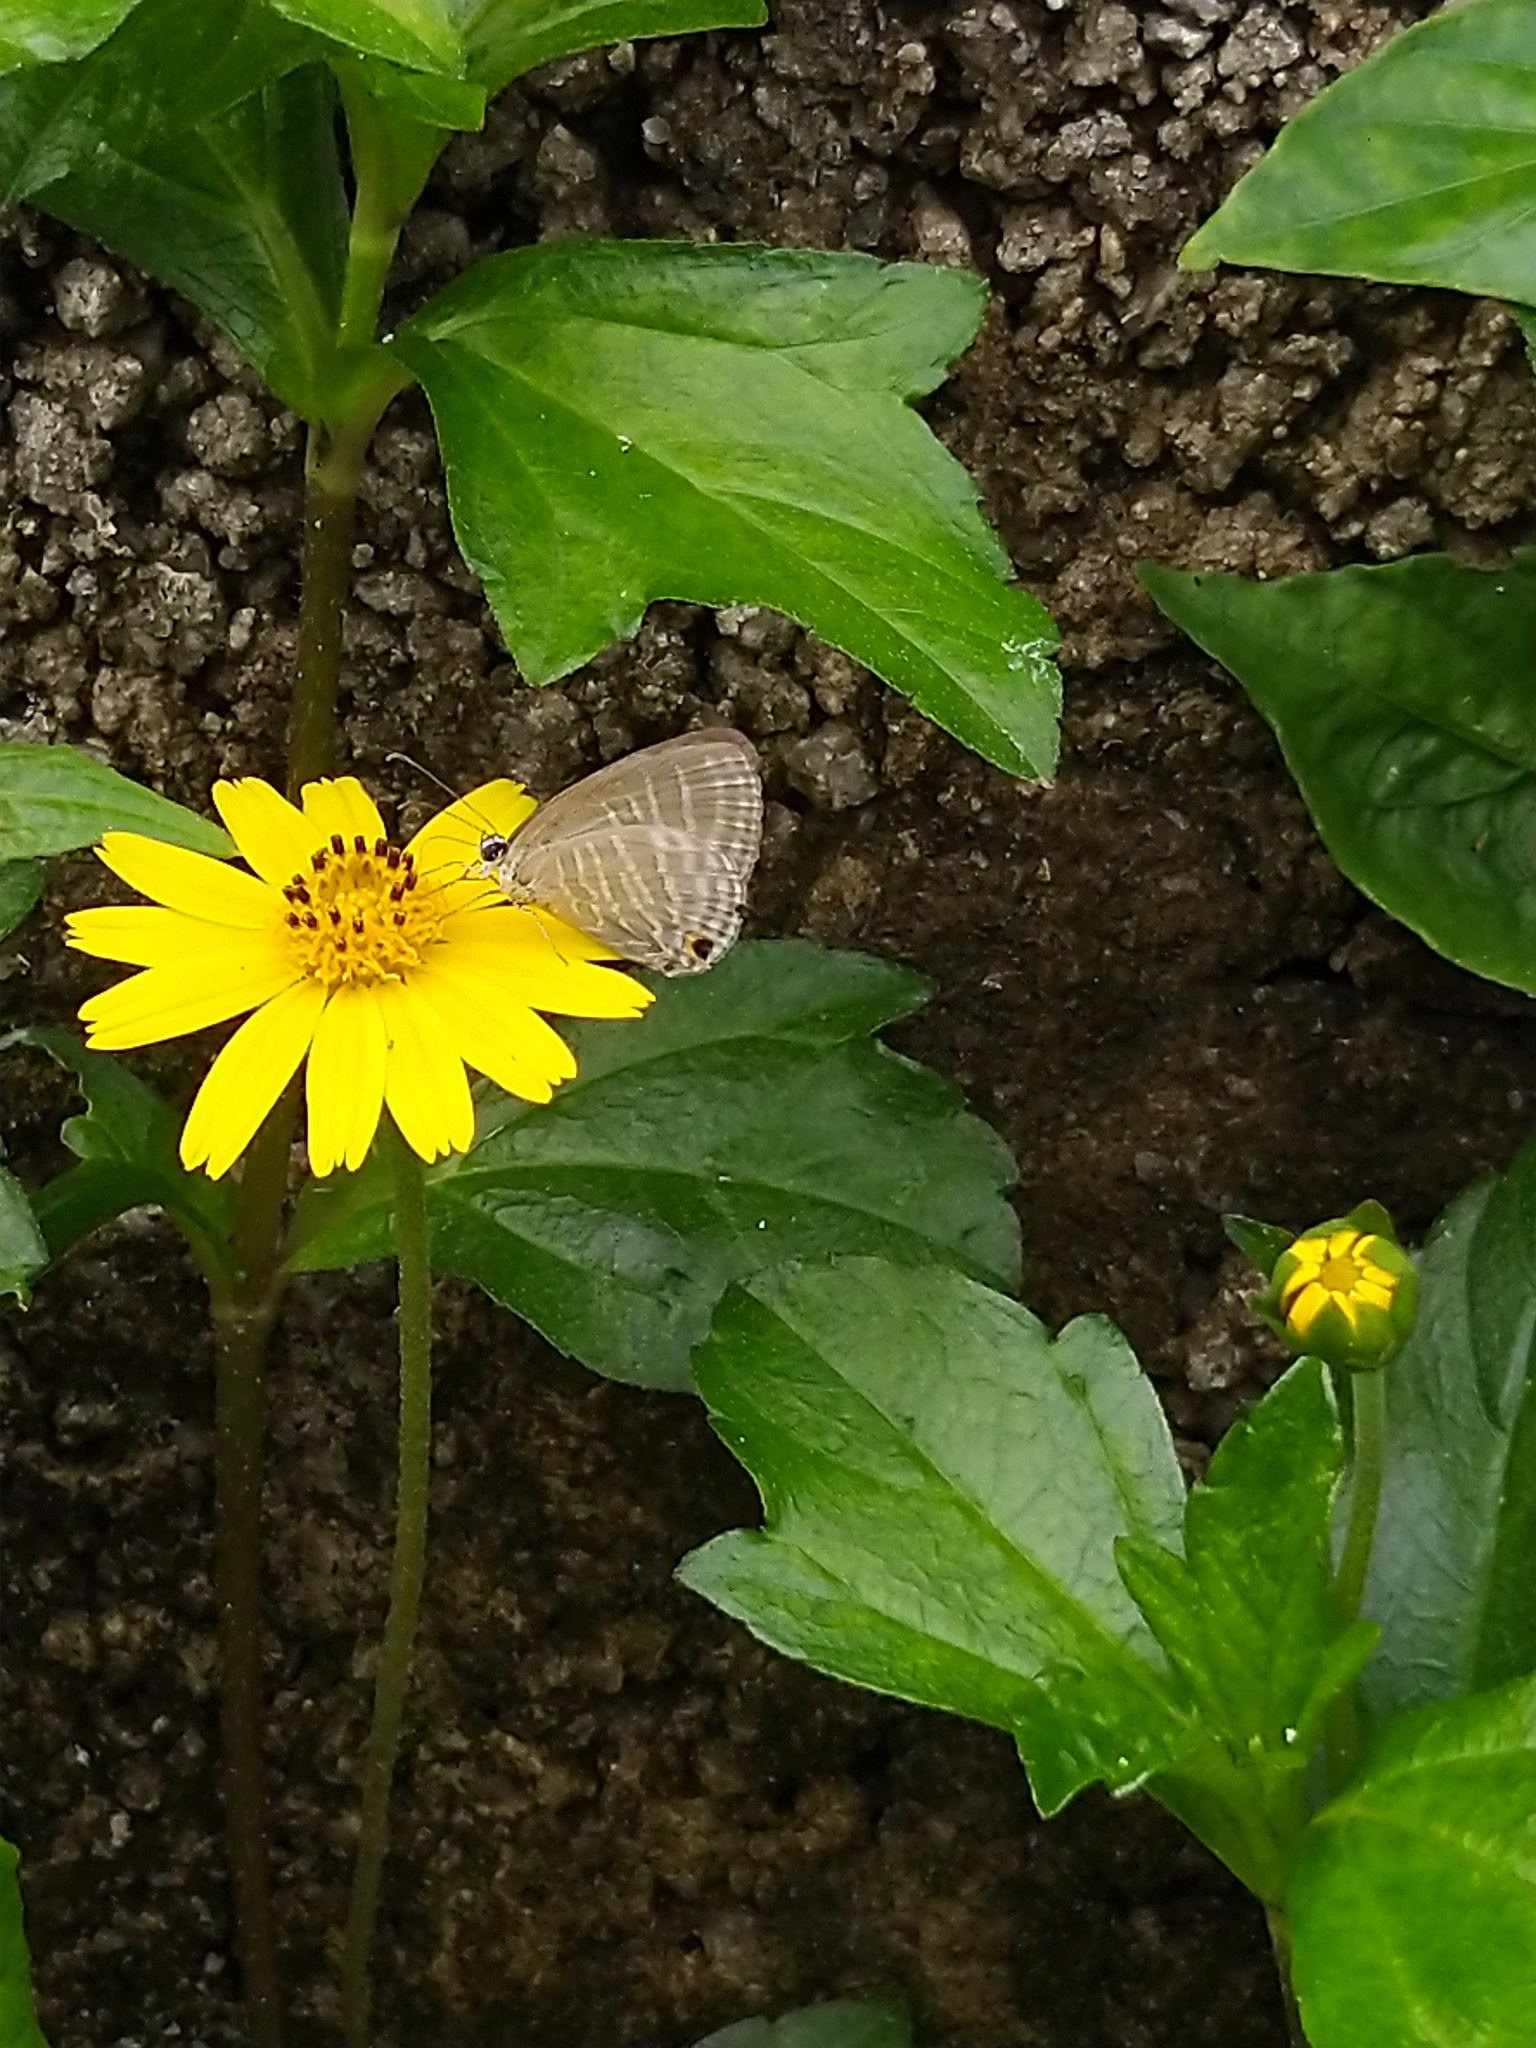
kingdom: Animalia
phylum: Arthropoda
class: Insecta
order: Lepidoptera
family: Lycaenidae
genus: Jamides
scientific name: Jamides celeno
